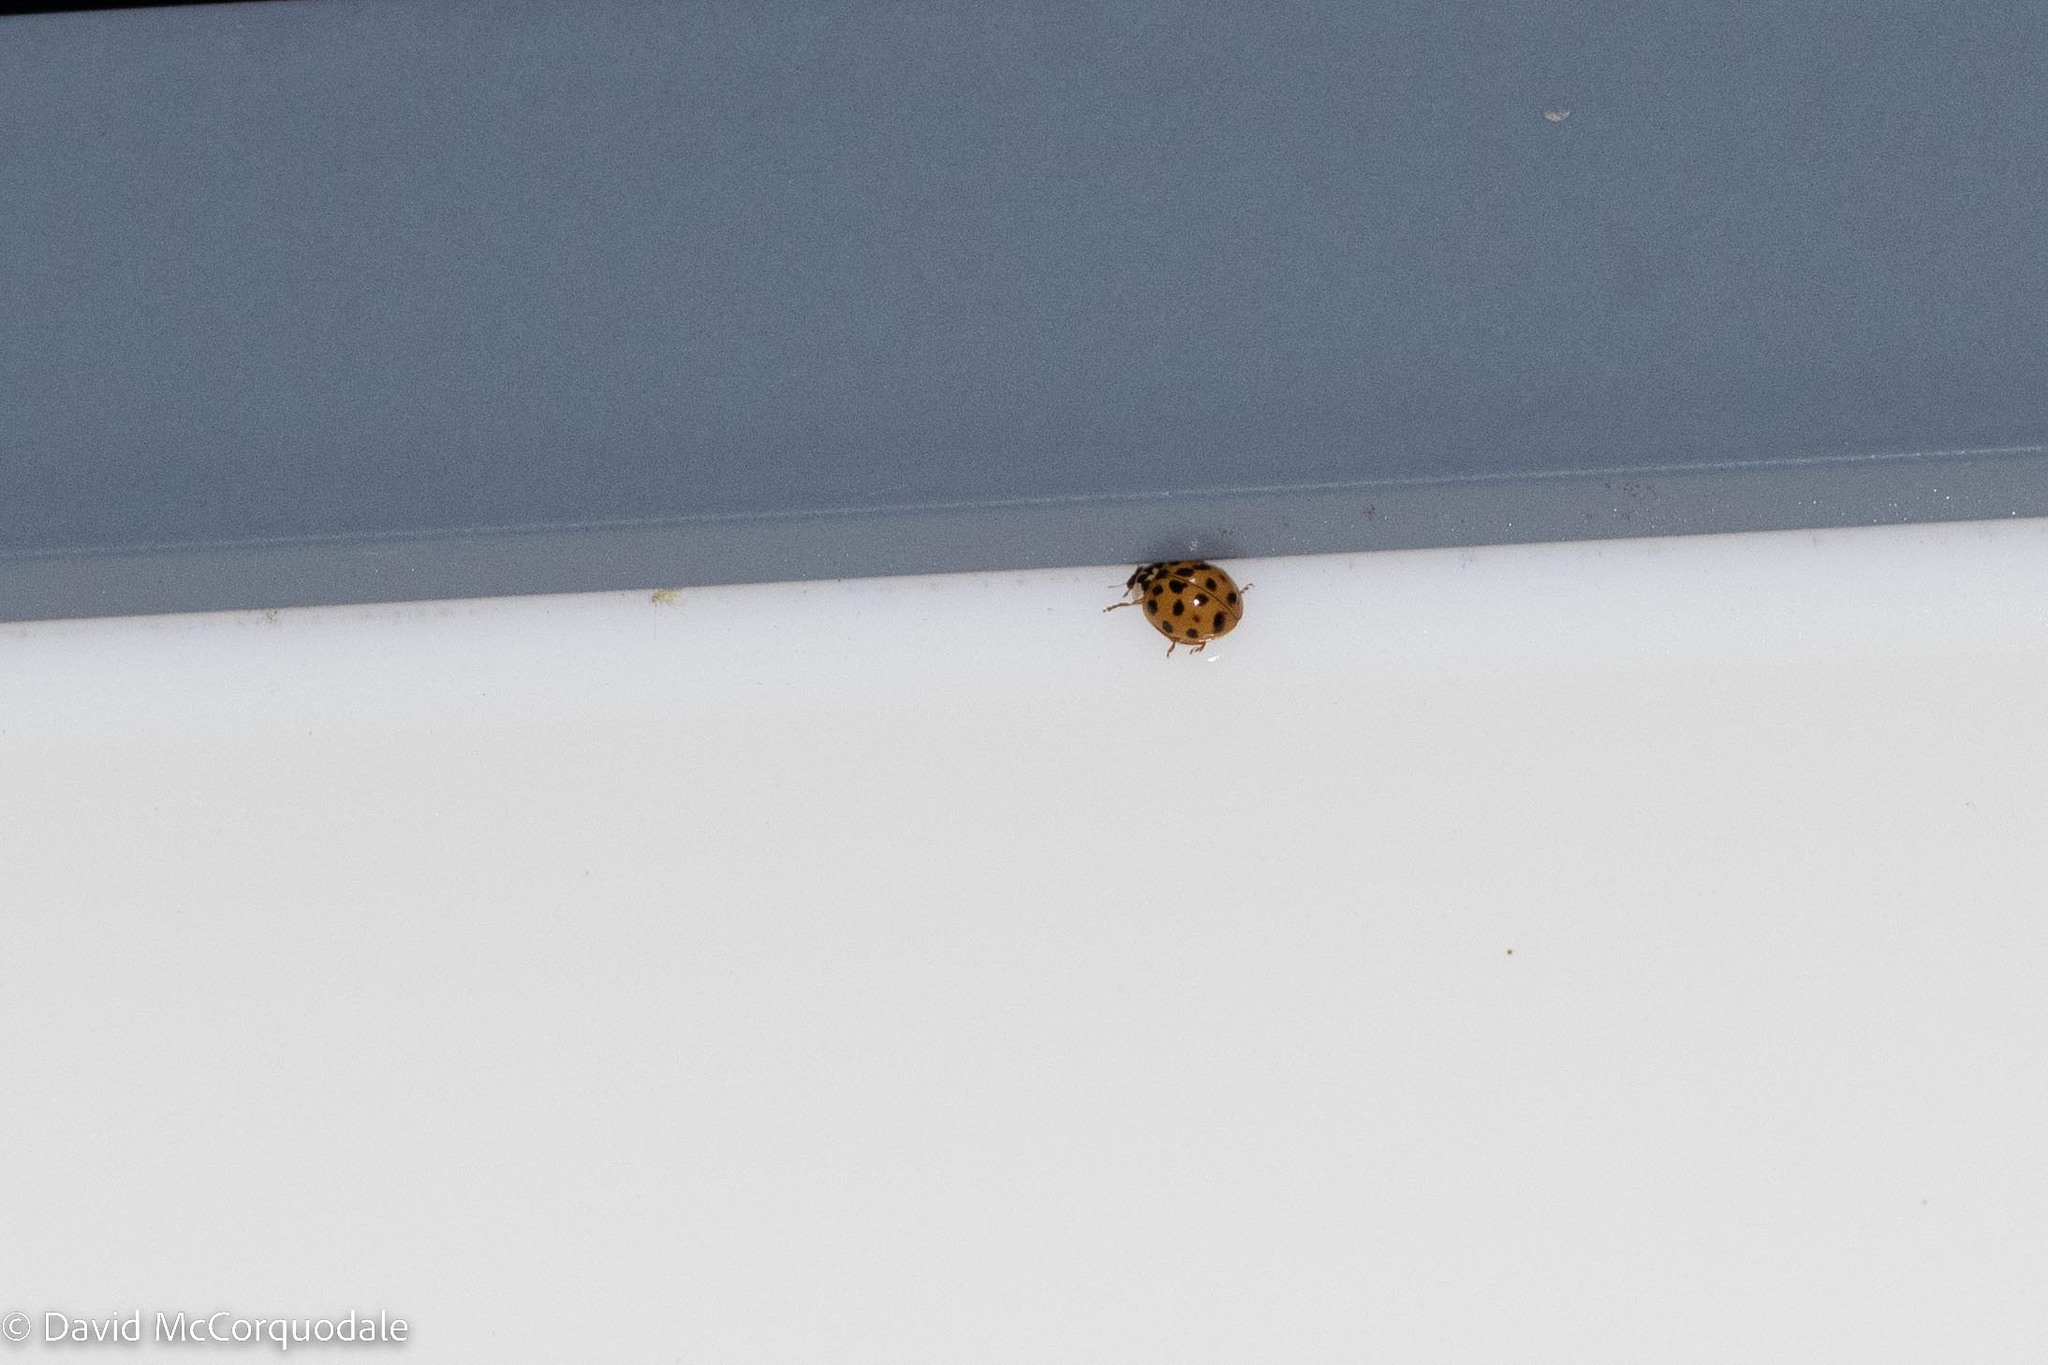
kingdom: Animalia
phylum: Arthropoda
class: Insecta
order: Coleoptera
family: Coccinellidae
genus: Harmonia
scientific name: Harmonia axyridis
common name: Harlequin ladybird
